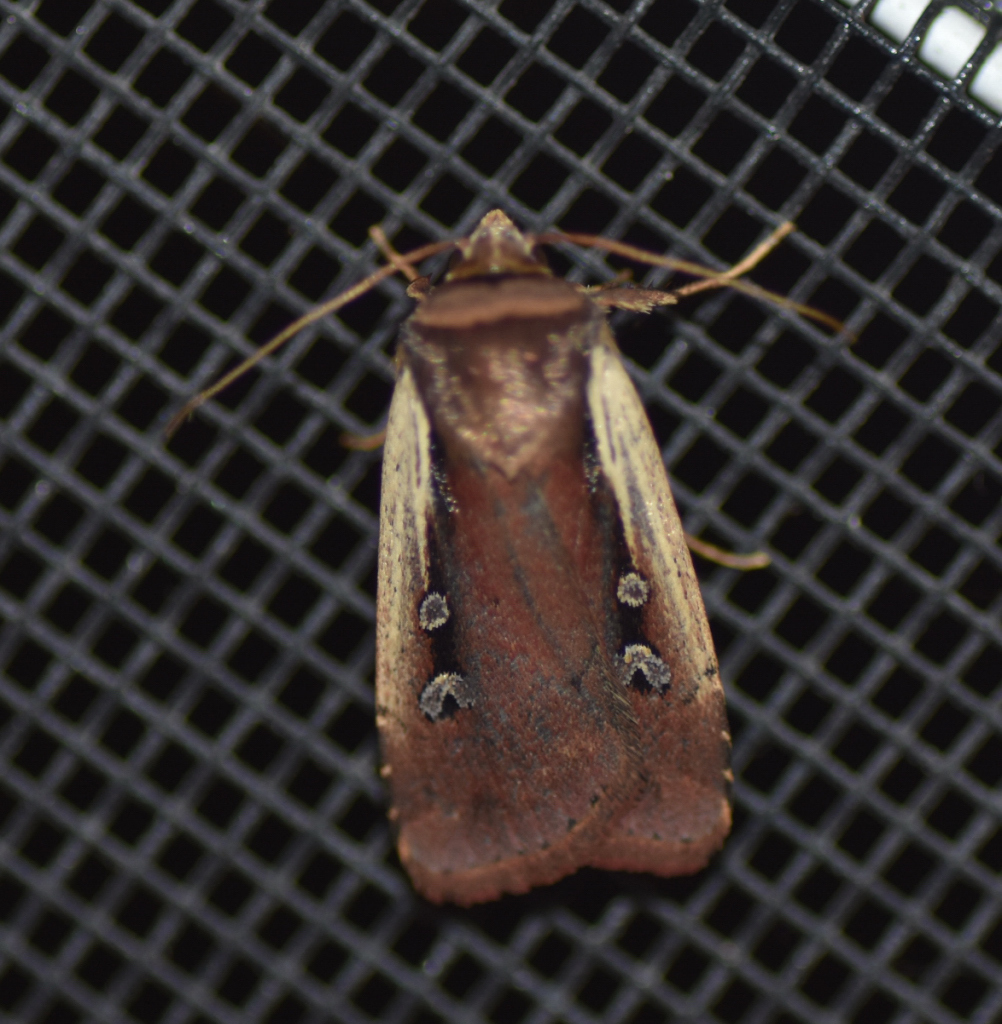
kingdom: Animalia
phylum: Arthropoda
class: Insecta
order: Lepidoptera
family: Noctuidae
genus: Ochropleura
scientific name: Ochropleura implecta
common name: Flame-shouldered dart
